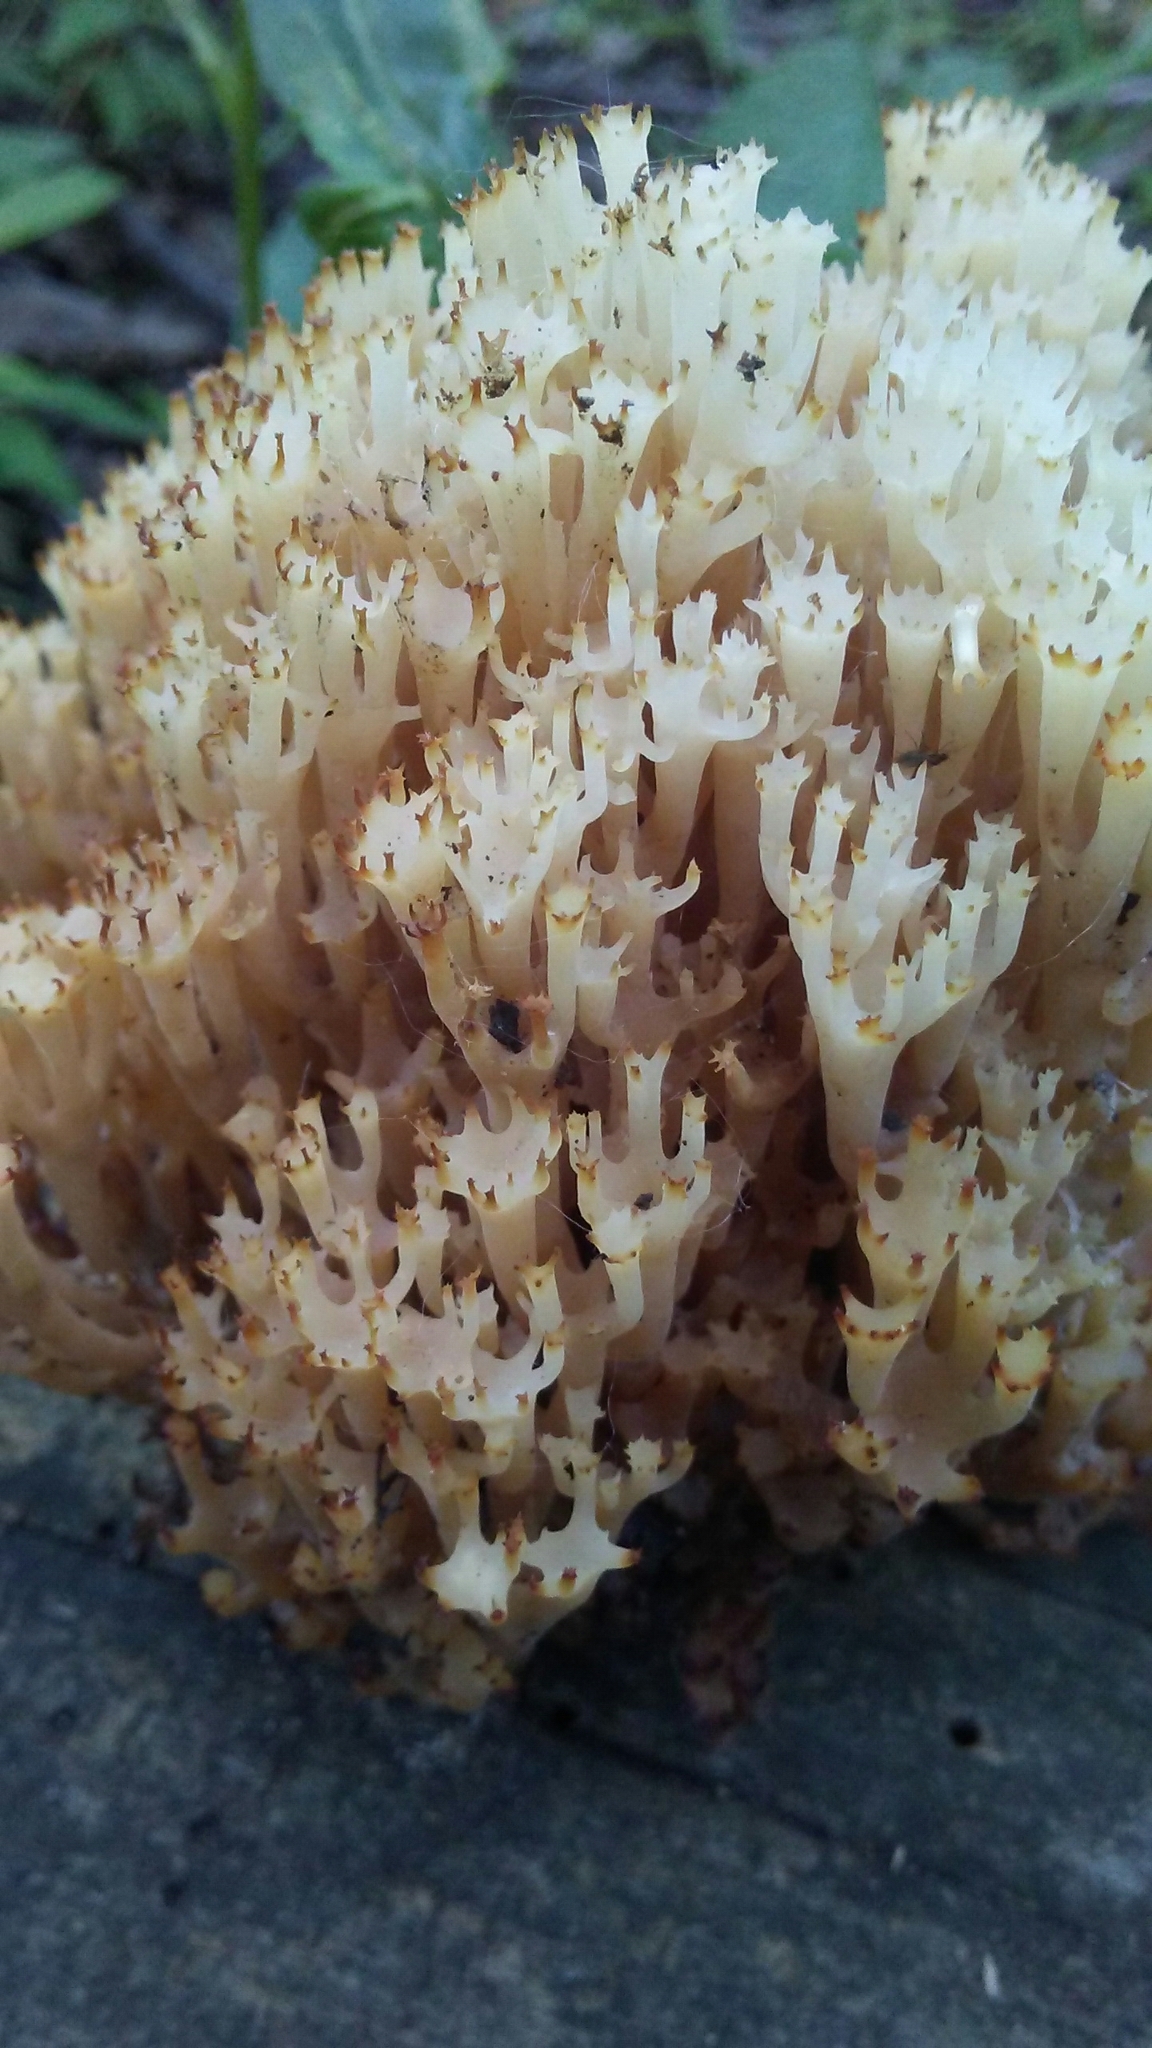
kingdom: Fungi
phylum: Basidiomycota
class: Agaricomycetes
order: Russulales
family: Auriscalpiaceae
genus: Artomyces
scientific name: Artomyces pyxidatus
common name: Crown-tipped coral fungus
